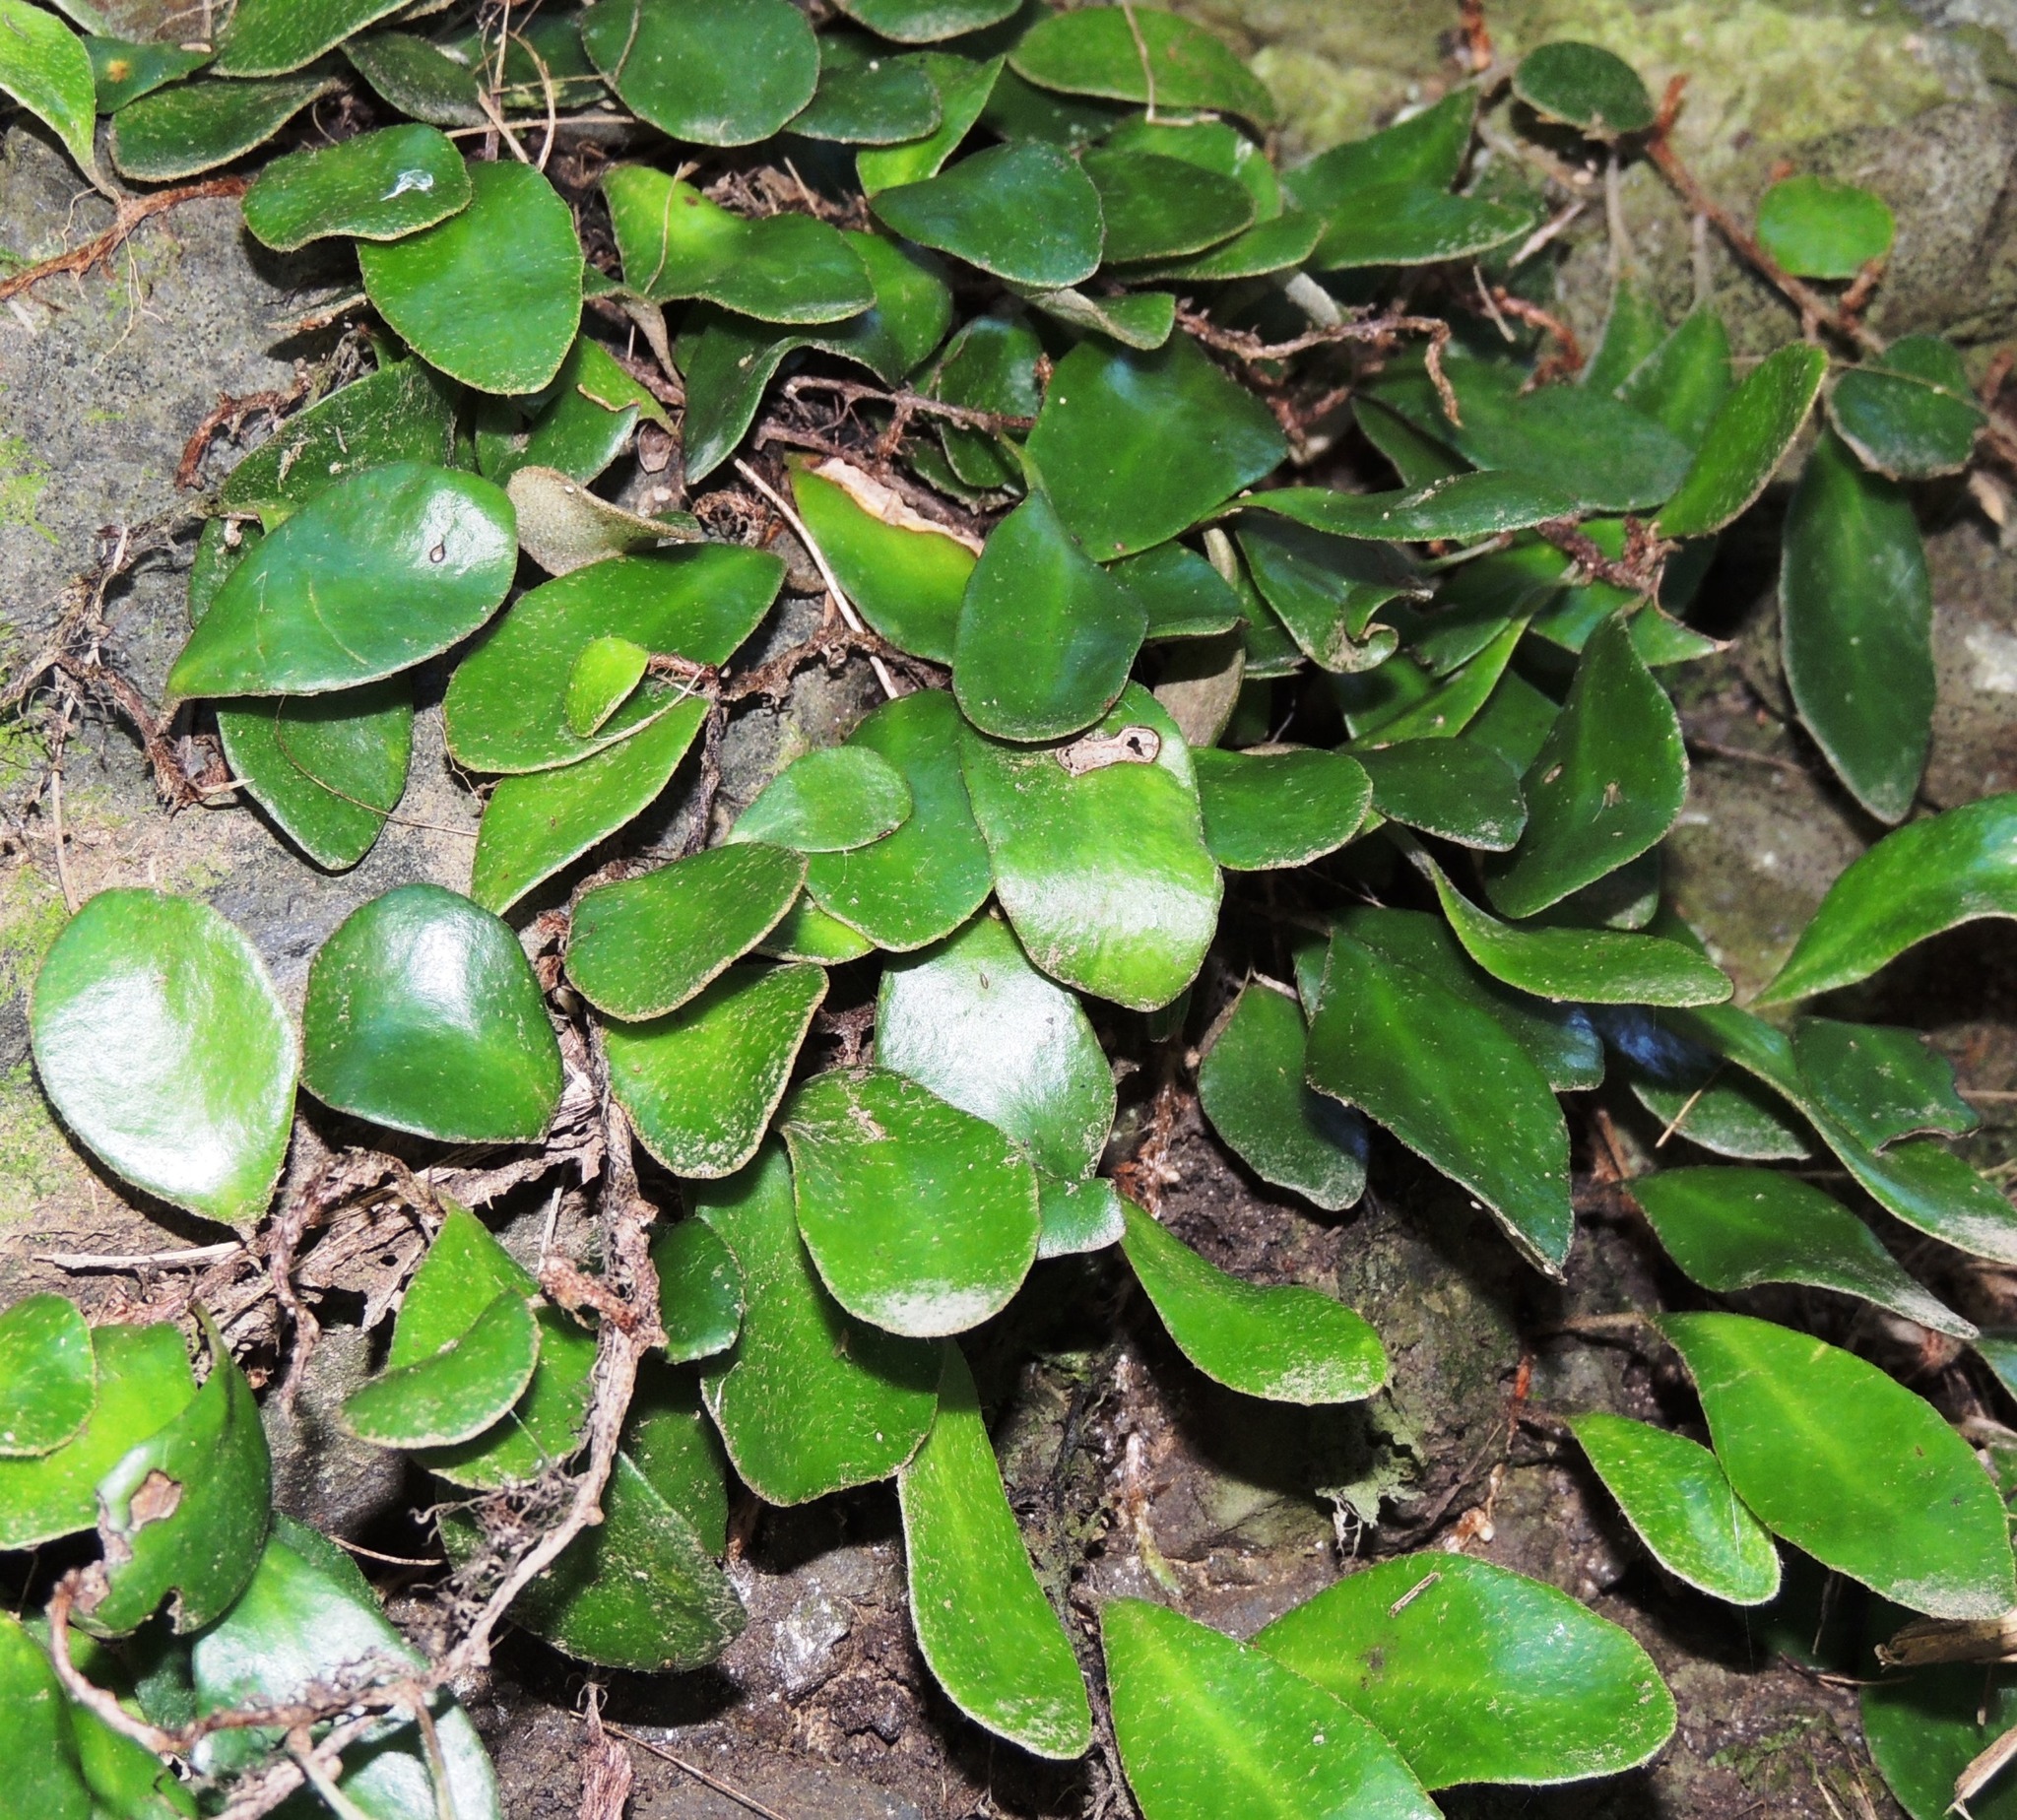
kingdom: Plantae
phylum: Tracheophyta
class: Polypodiopsida
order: Polypodiales
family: Polypodiaceae
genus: Pyrrosia
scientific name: Pyrrosia eleagnifolia
